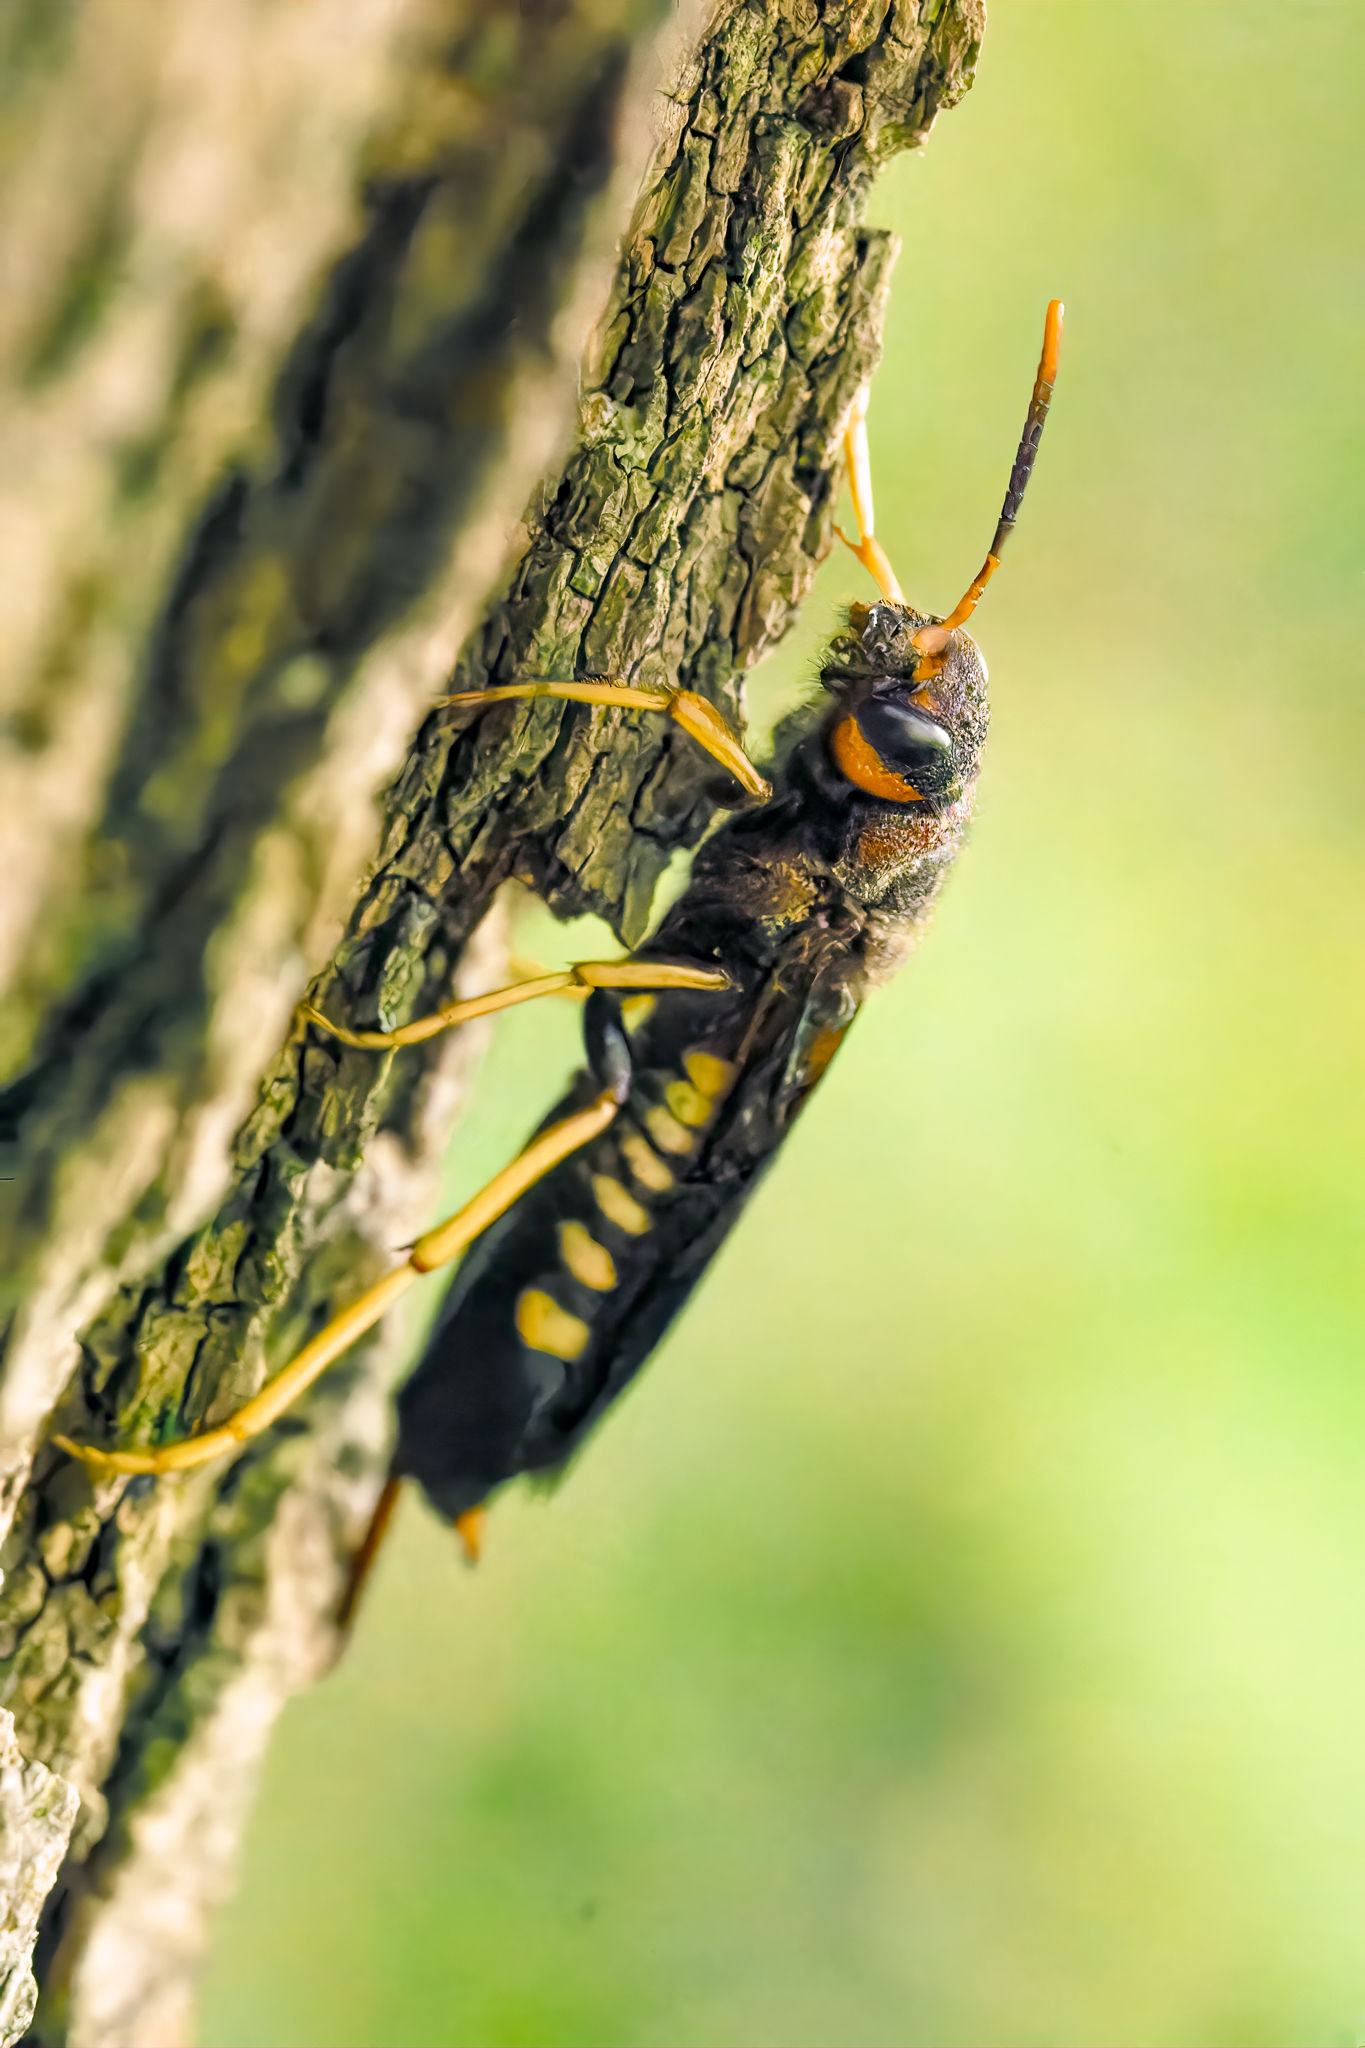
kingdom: Animalia
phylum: Arthropoda
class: Insecta
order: Hymenoptera
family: Siricidae
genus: Tremex
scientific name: Tremex columba
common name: Wasp
